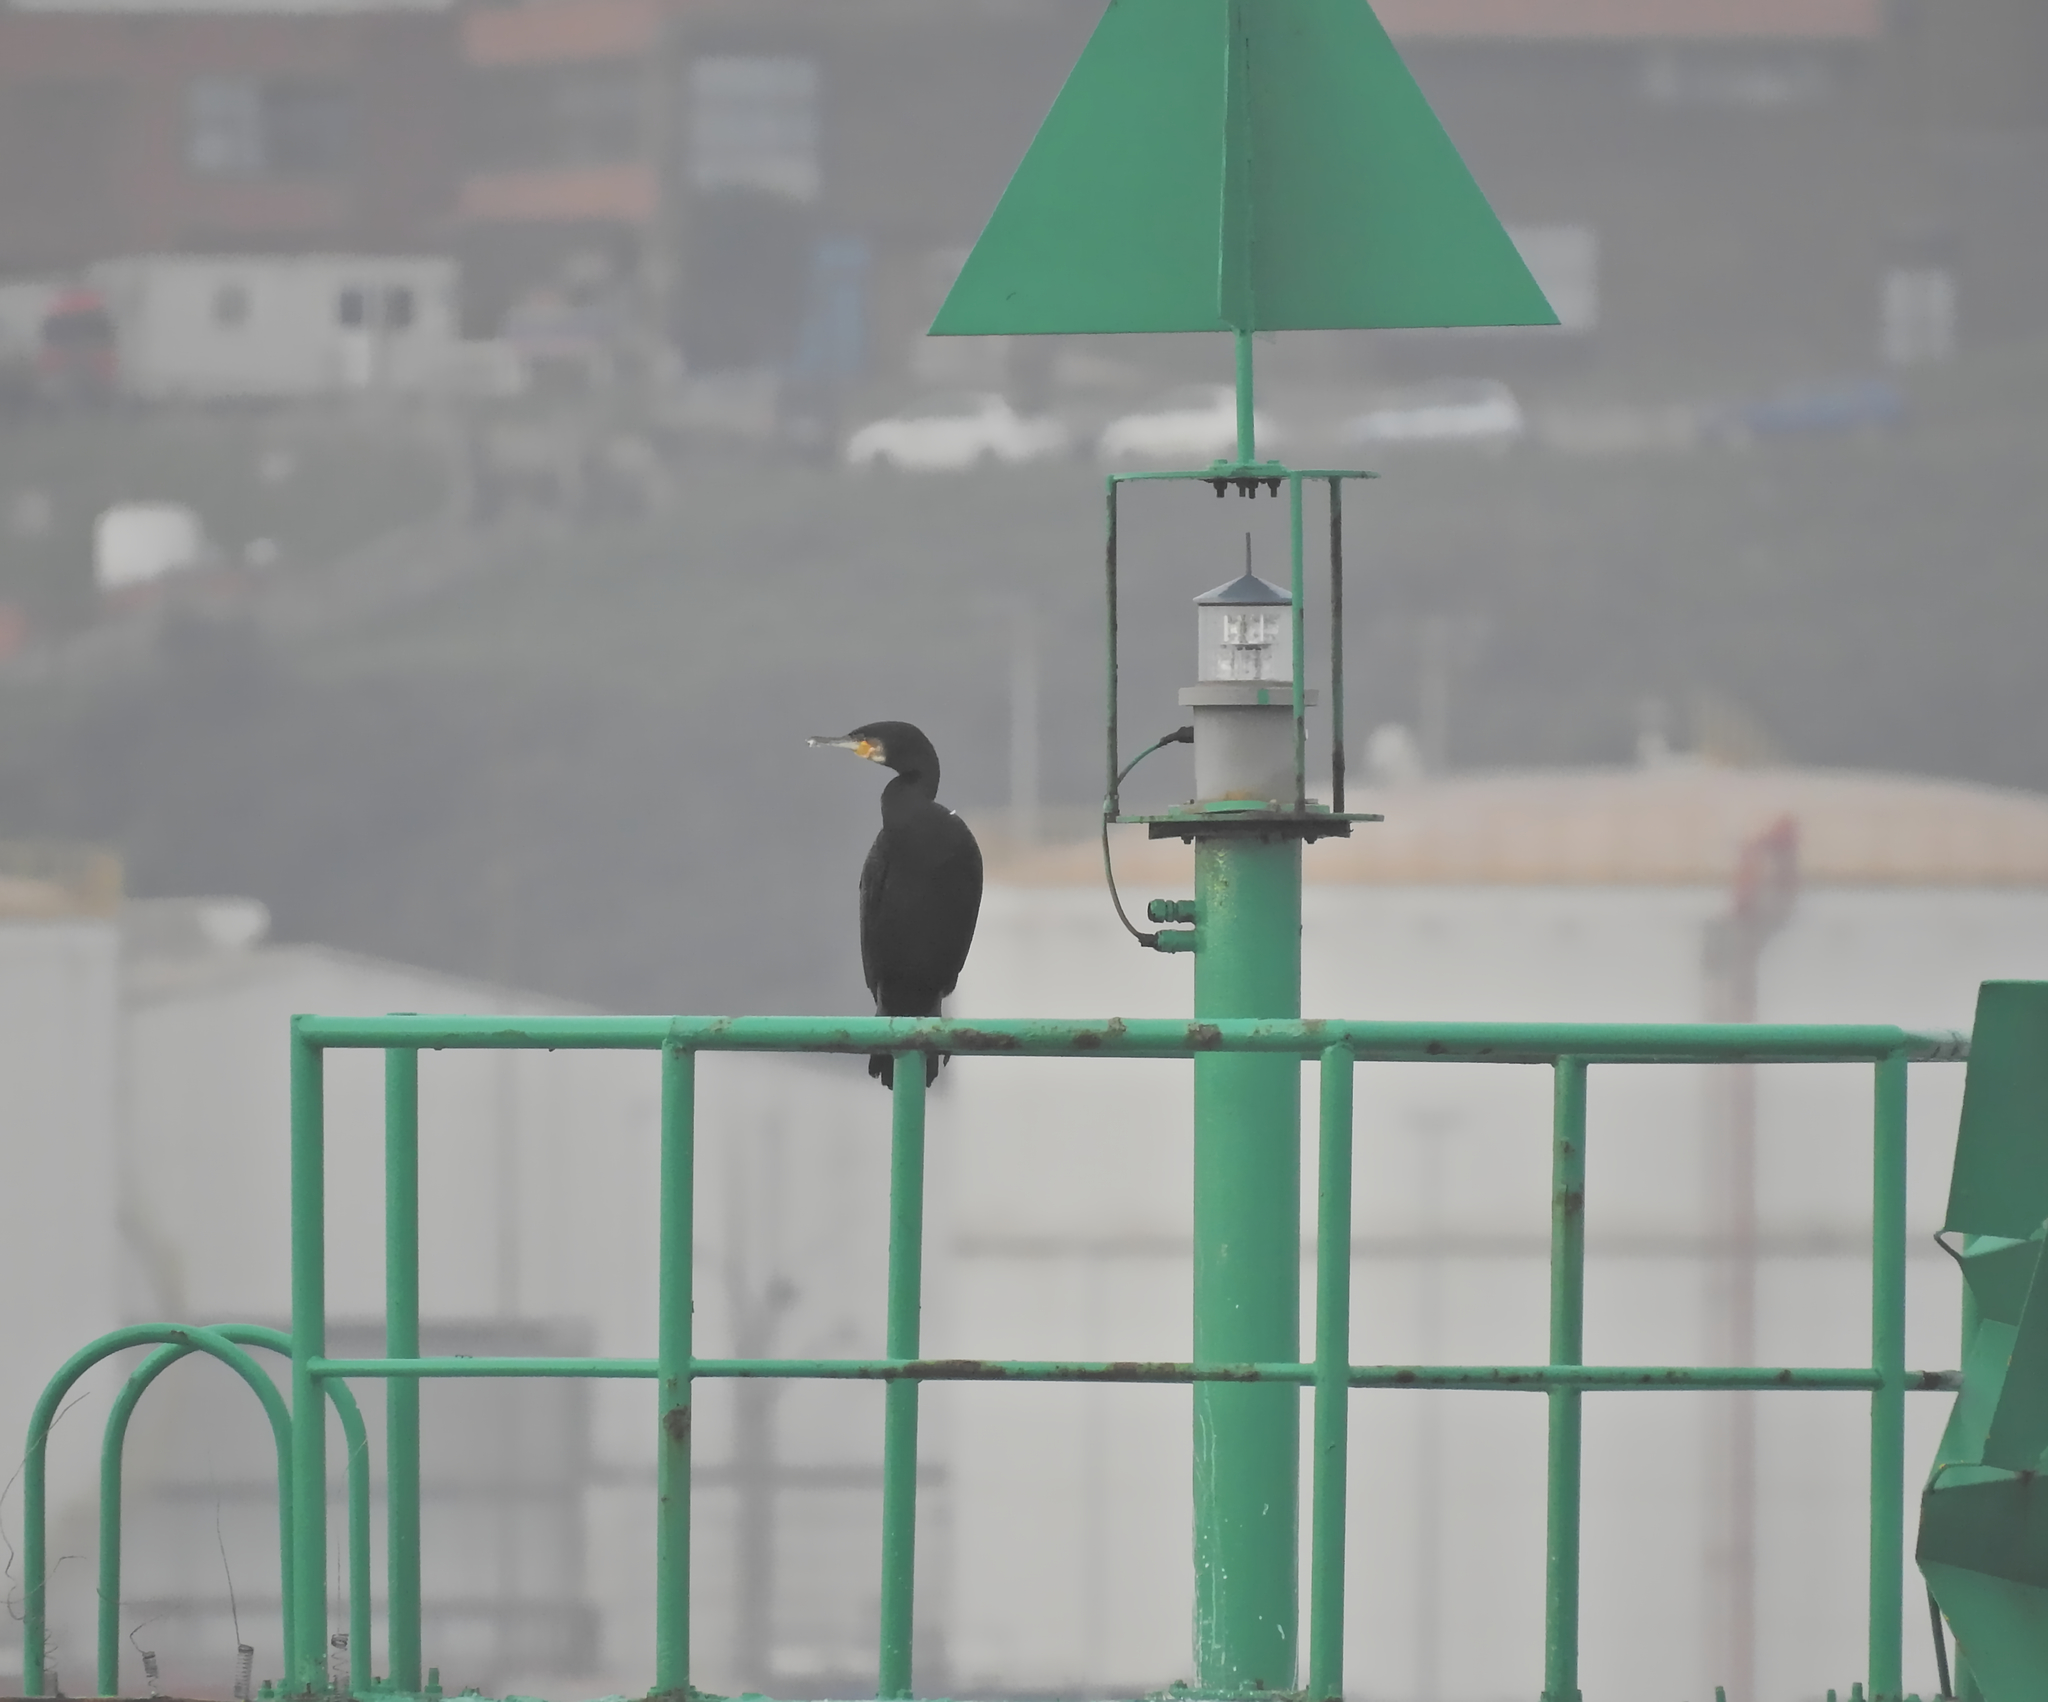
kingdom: Animalia
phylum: Chordata
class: Aves
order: Suliformes
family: Phalacrocoracidae
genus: Phalacrocorax
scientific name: Phalacrocorax carbo
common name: Great cormorant
